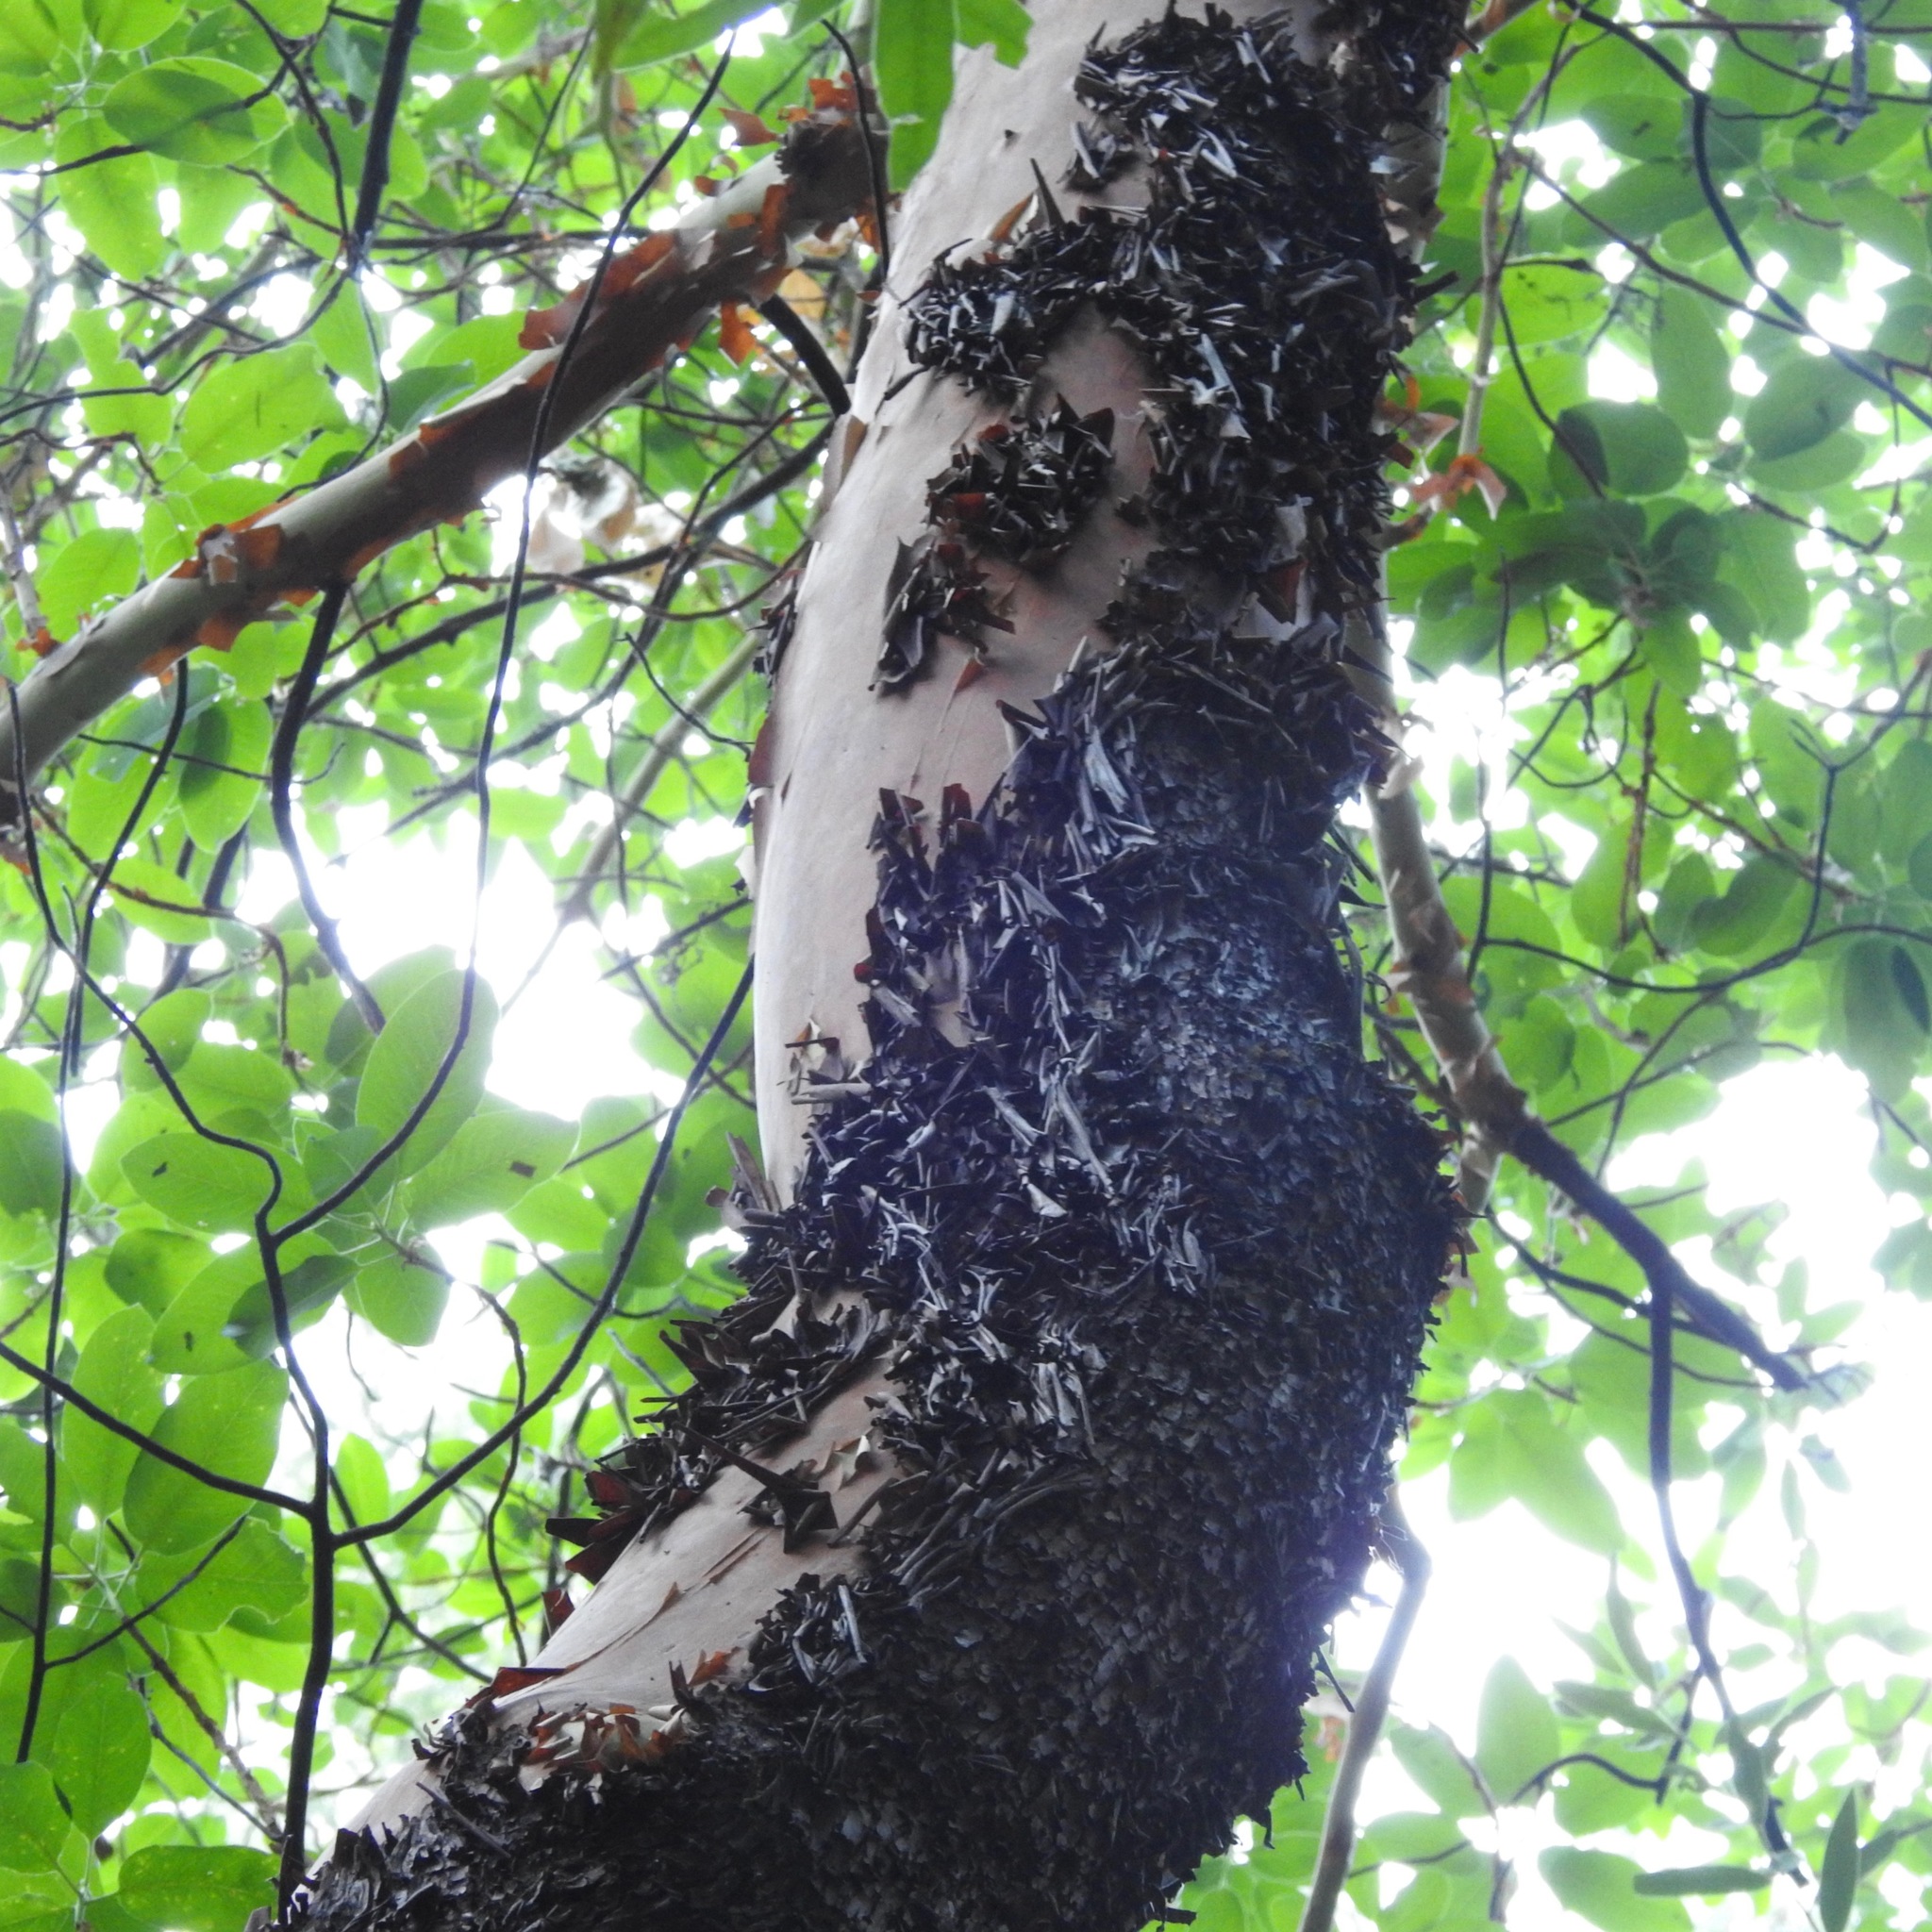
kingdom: Plantae
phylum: Tracheophyta
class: Magnoliopsida
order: Ericales
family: Ericaceae
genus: Arbutus
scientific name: Arbutus menziesii
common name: Pacific madrone
